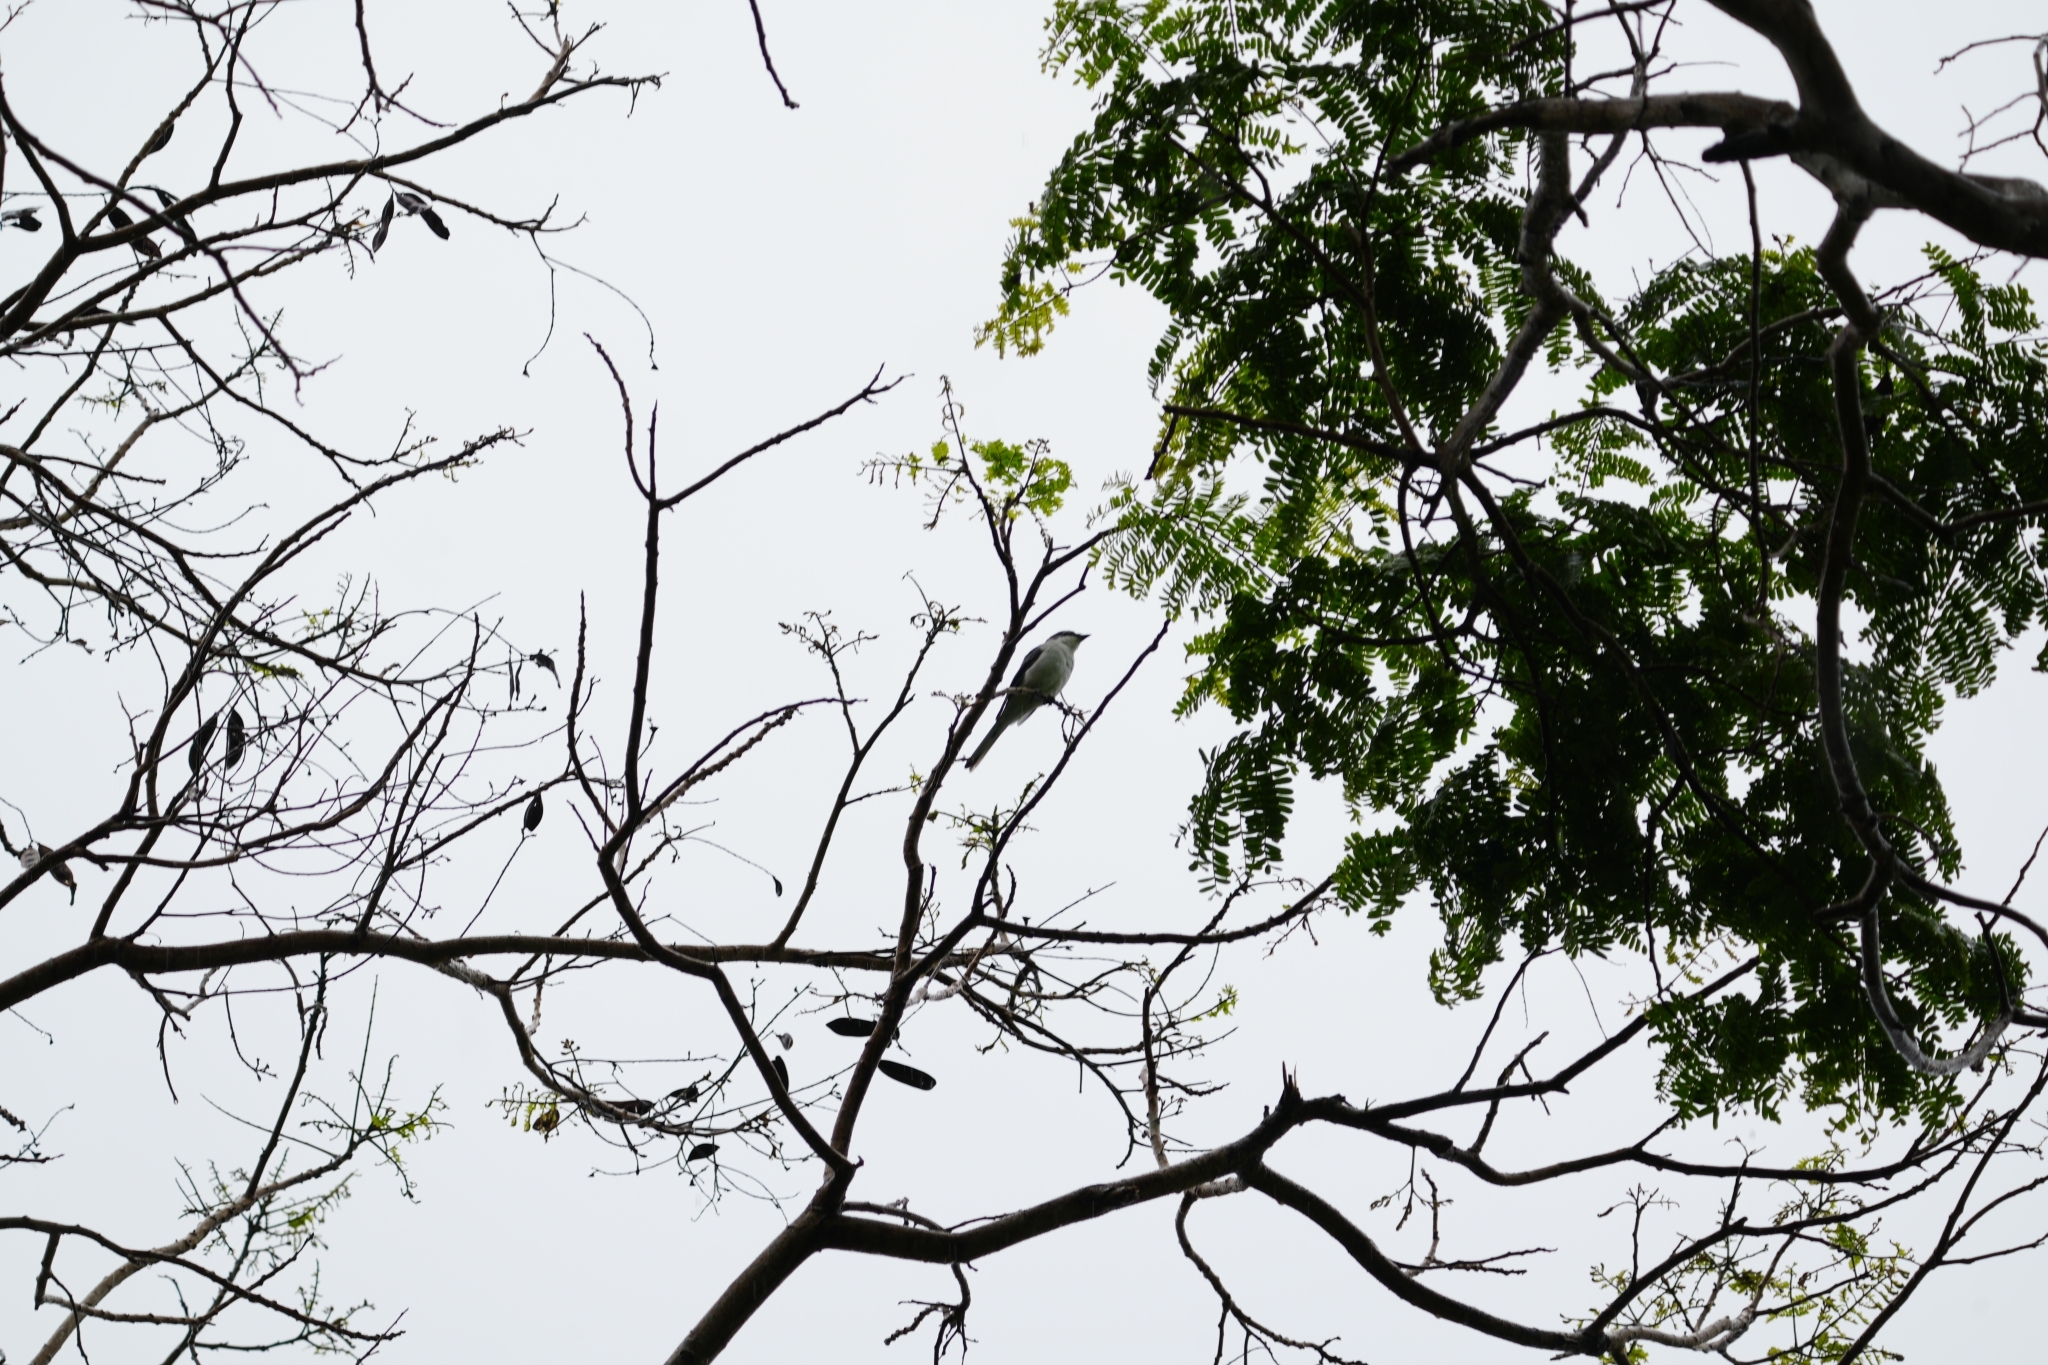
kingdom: Animalia
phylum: Chordata
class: Aves
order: Passeriformes
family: Campephagidae
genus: Pericrocotus
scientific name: Pericrocotus divaricatus
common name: Ashy minivet
